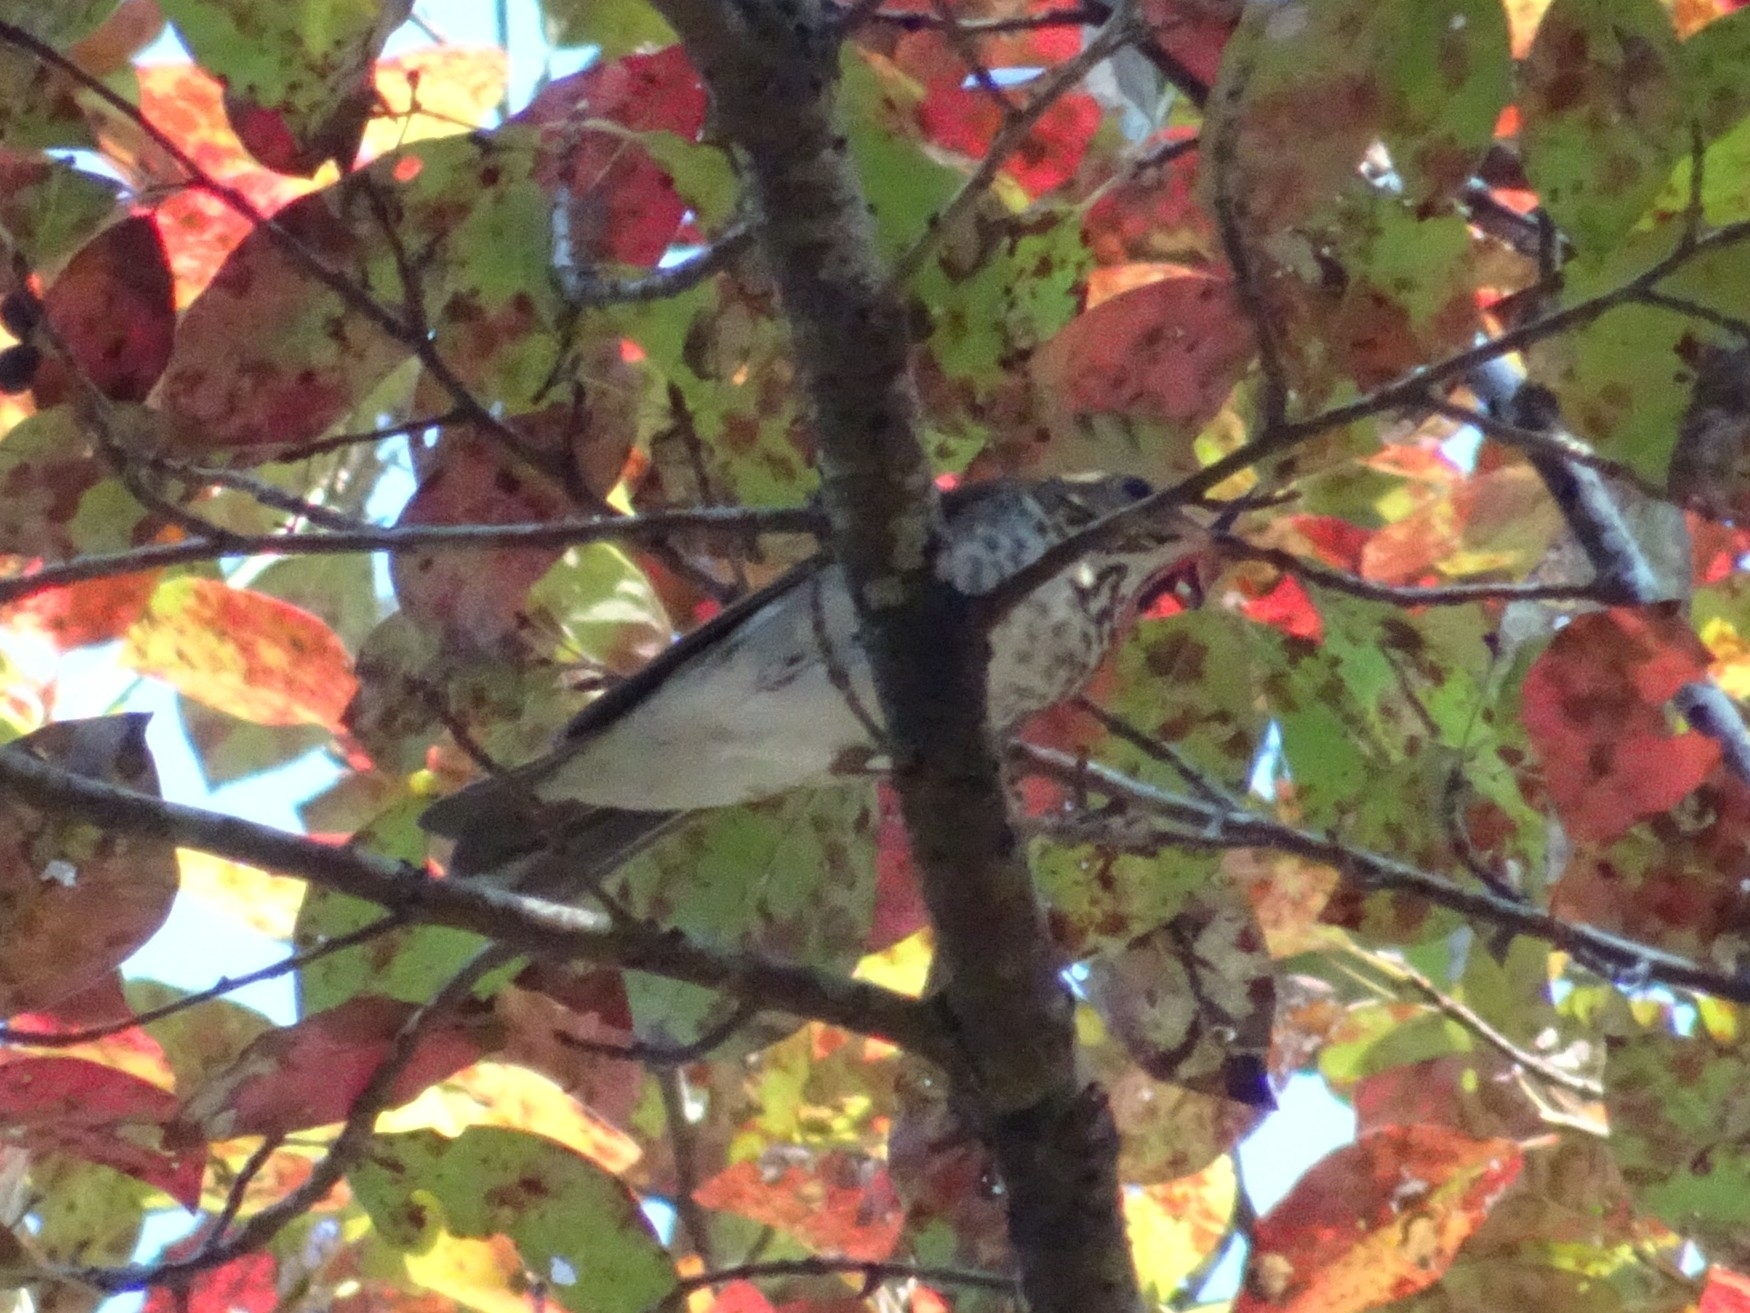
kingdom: Animalia
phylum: Chordata
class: Aves
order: Passeriformes
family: Turdidae
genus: Hylocichla
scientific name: Hylocichla mustelina
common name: Wood thrush
